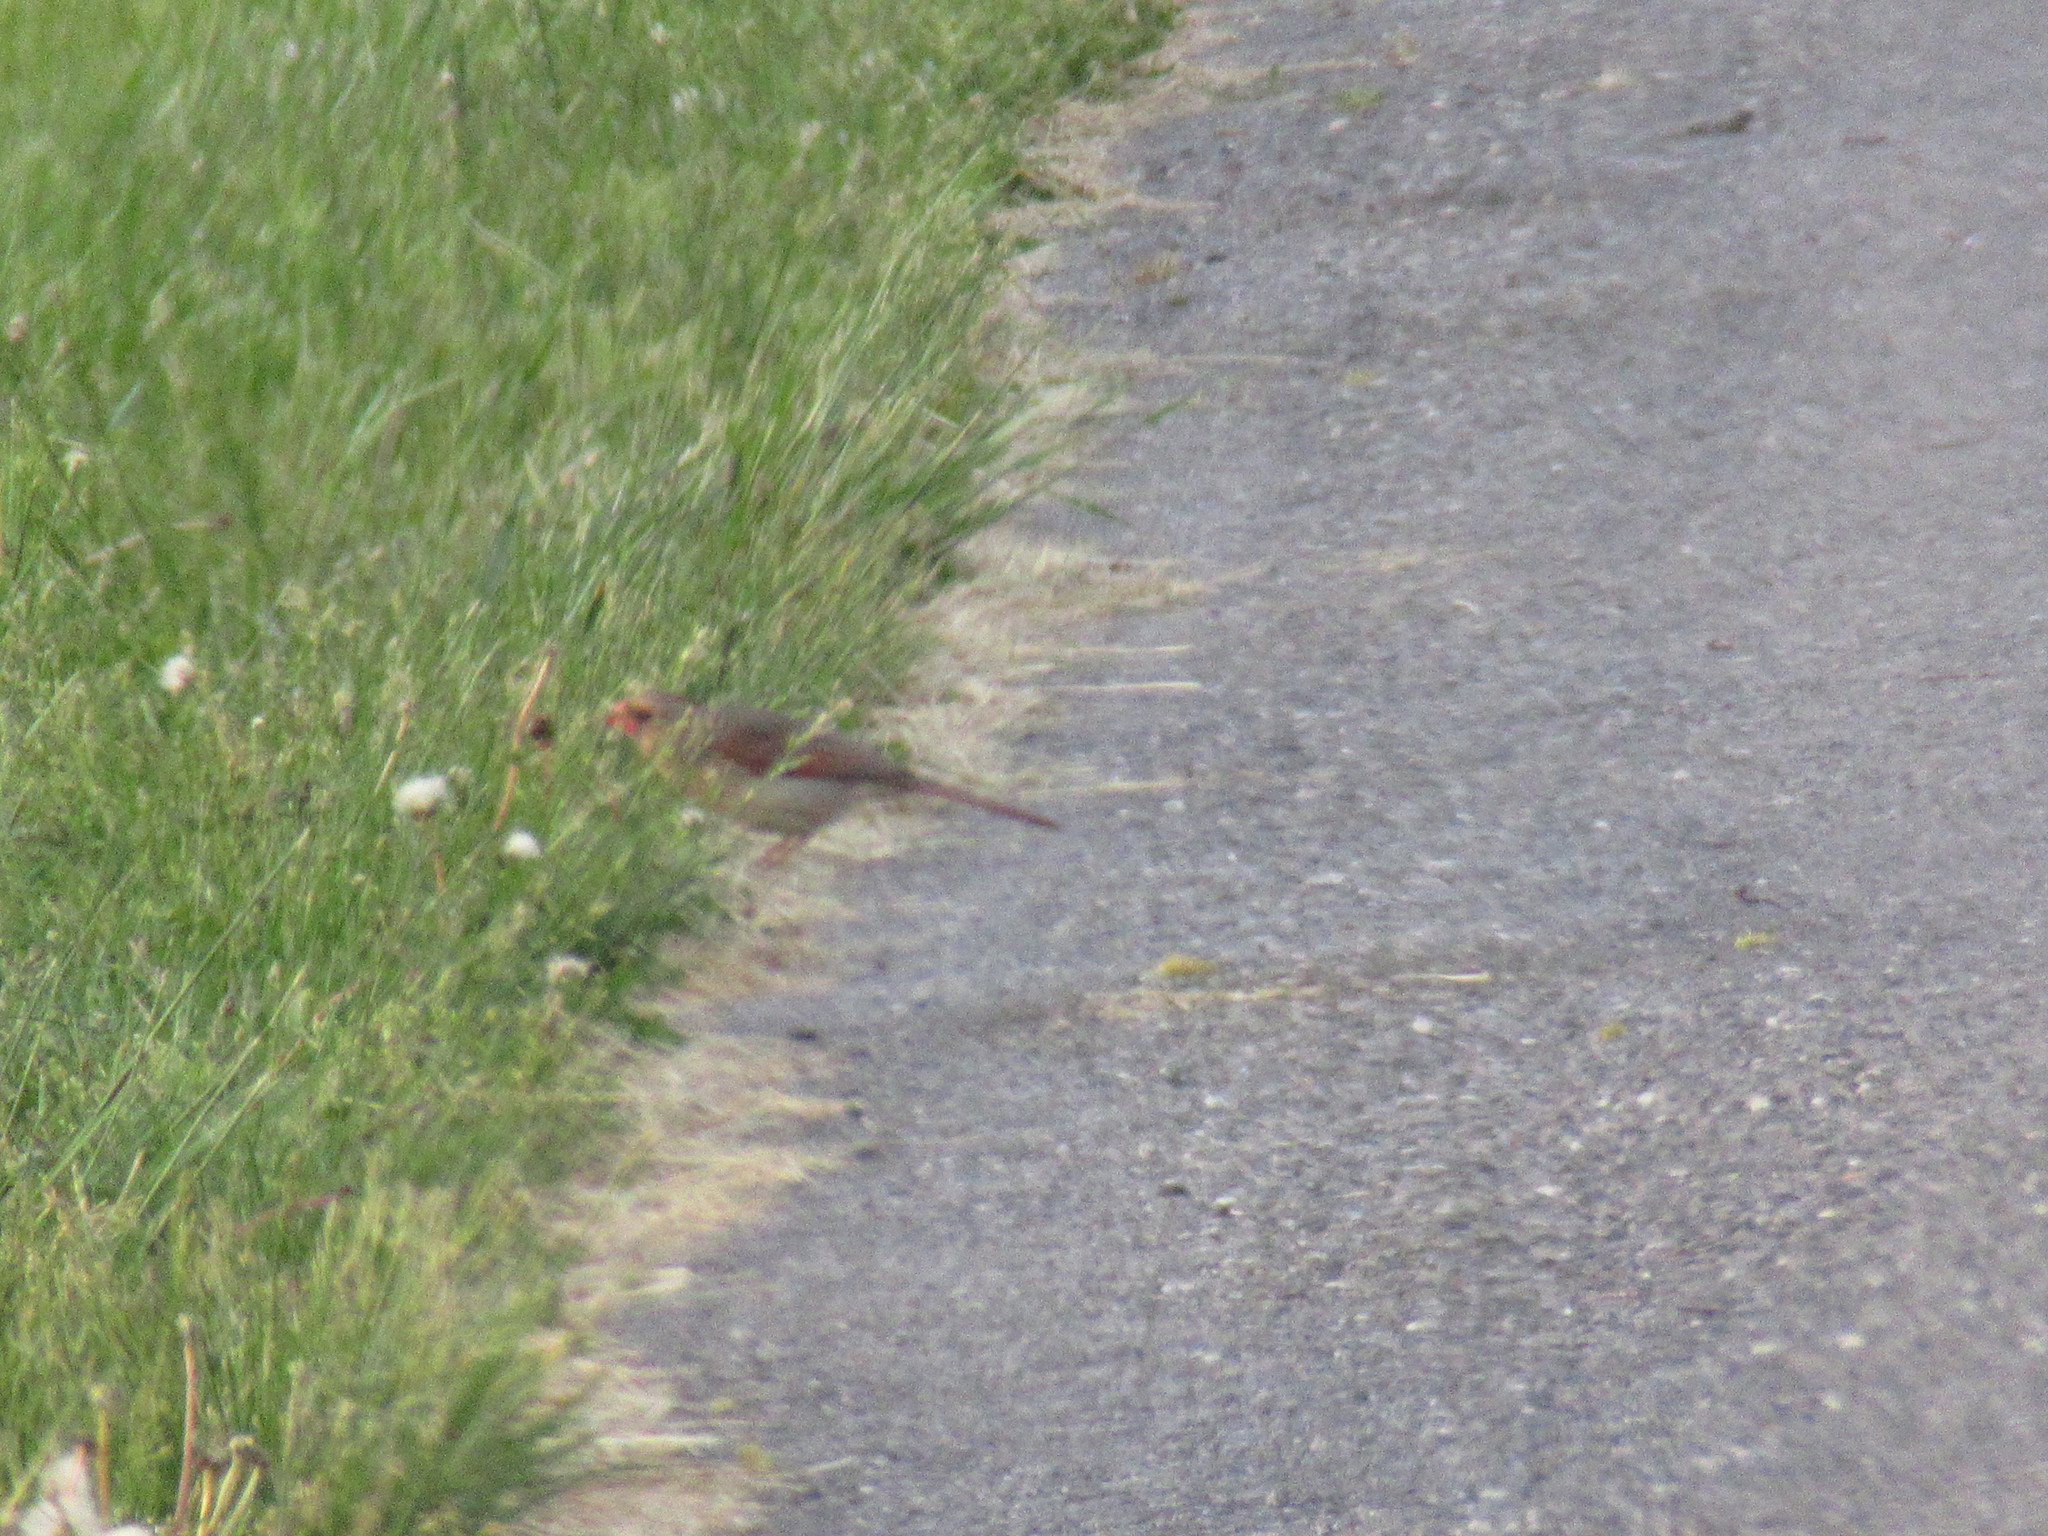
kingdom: Animalia
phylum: Chordata
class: Aves
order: Passeriformes
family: Cardinalidae
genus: Cardinalis
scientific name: Cardinalis cardinalis
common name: Northern cardinal
